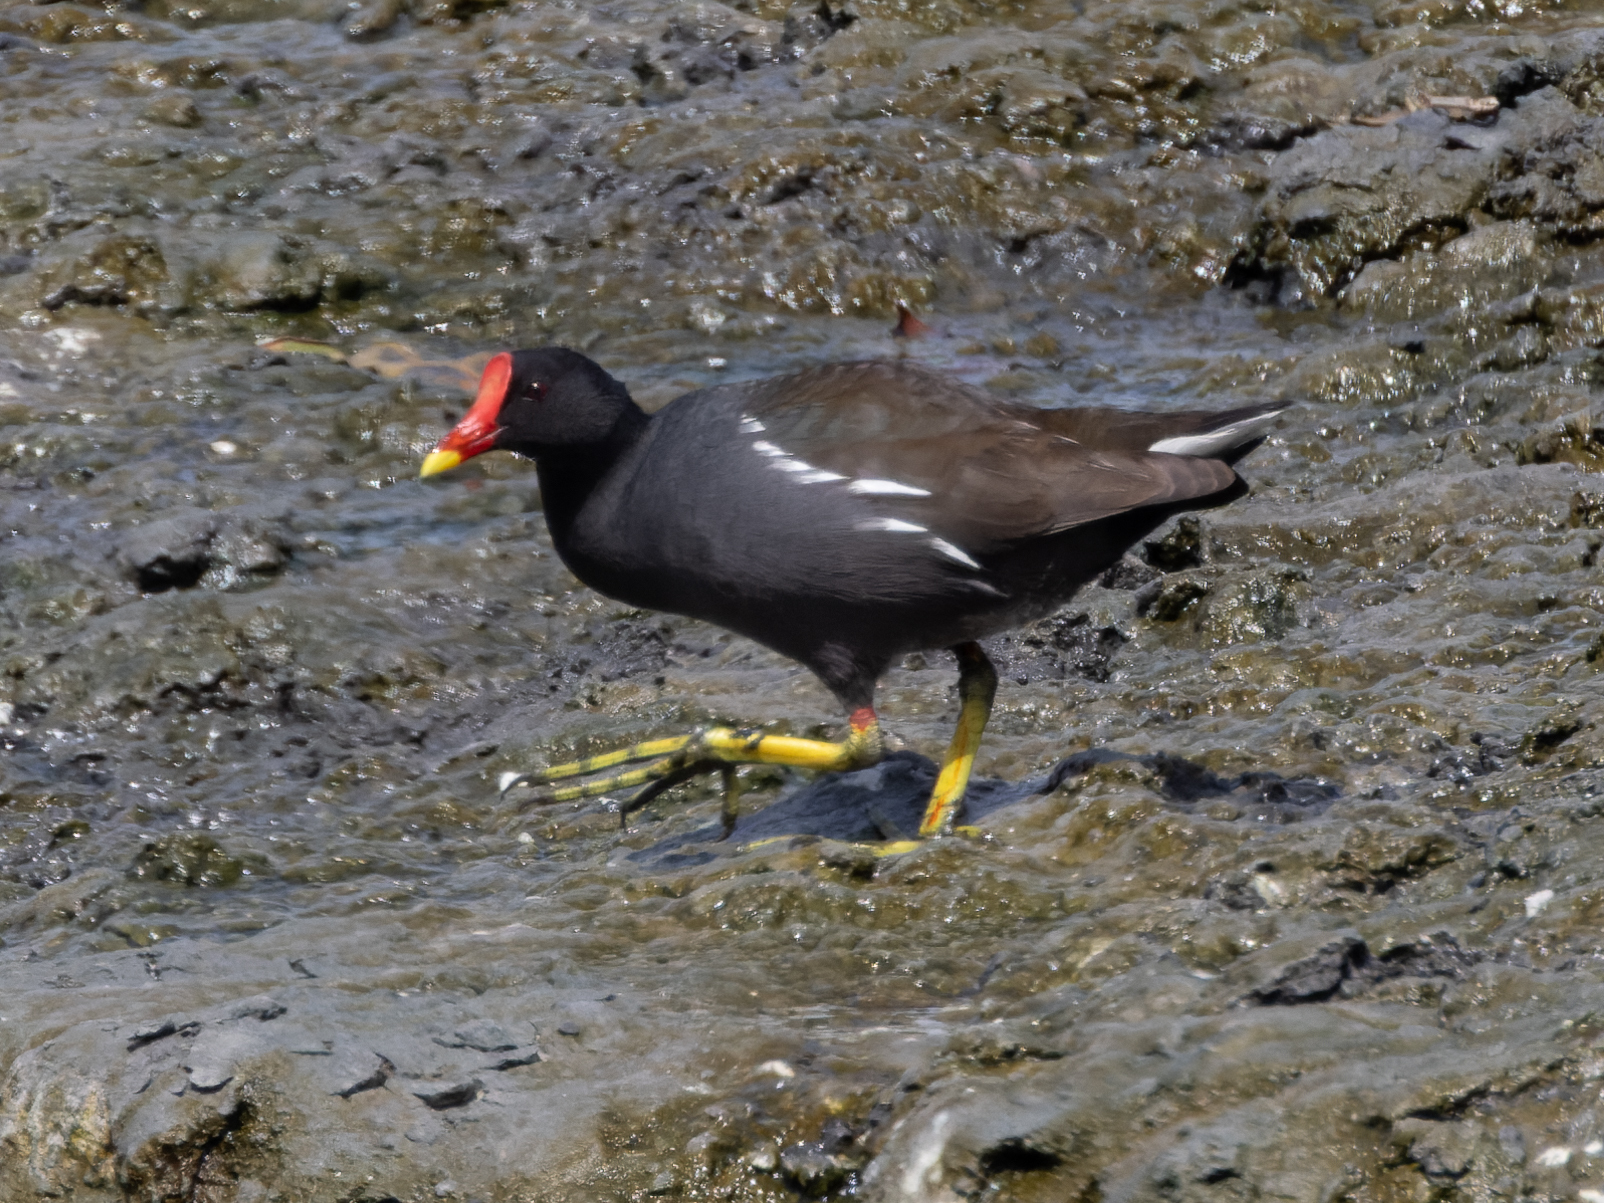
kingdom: Animalia
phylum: Chordata
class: Aves
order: Gruiformes
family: Rallidae
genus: Gallinula
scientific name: Gallinula chloropus
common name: Common moorhen
